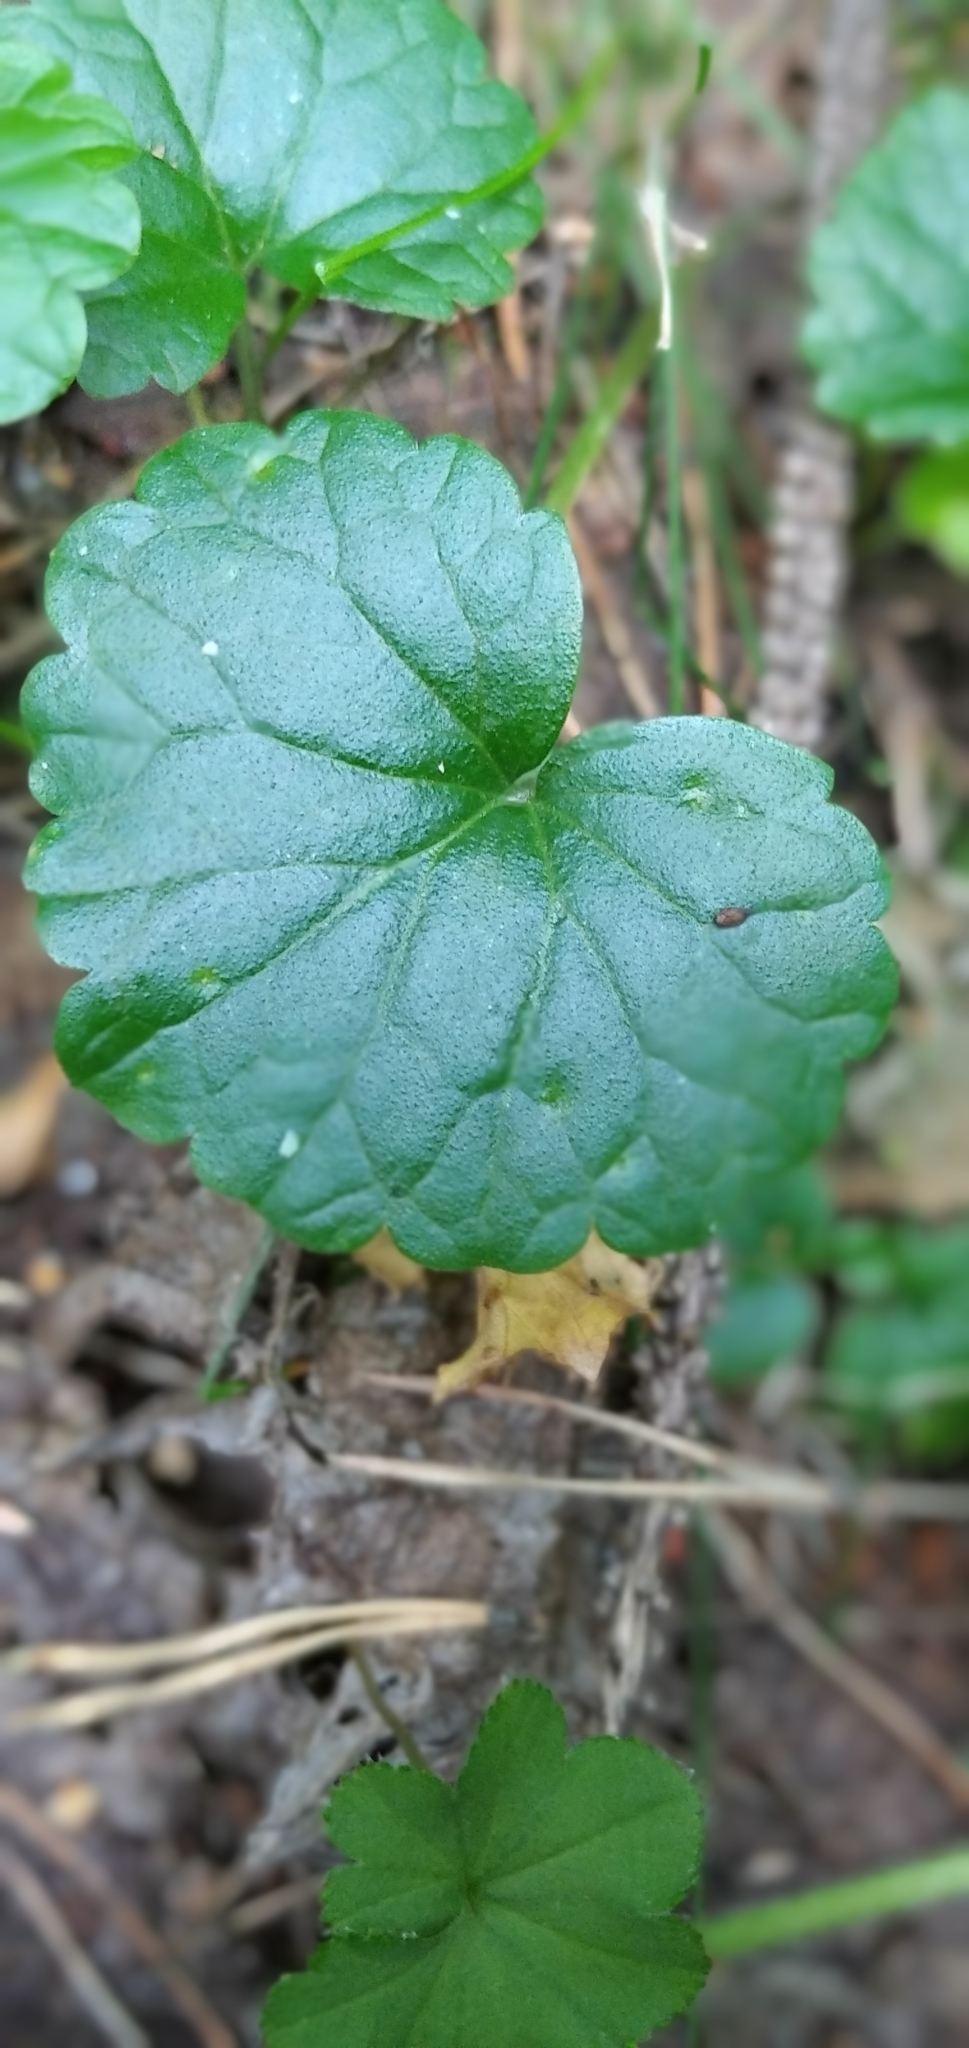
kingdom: Plantae
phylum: Tracheophyta
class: Magnoliopsida
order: Lamiales
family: Lamiaceae
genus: Glechoma
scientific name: Glechoma hederacea
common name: Ground ivy
